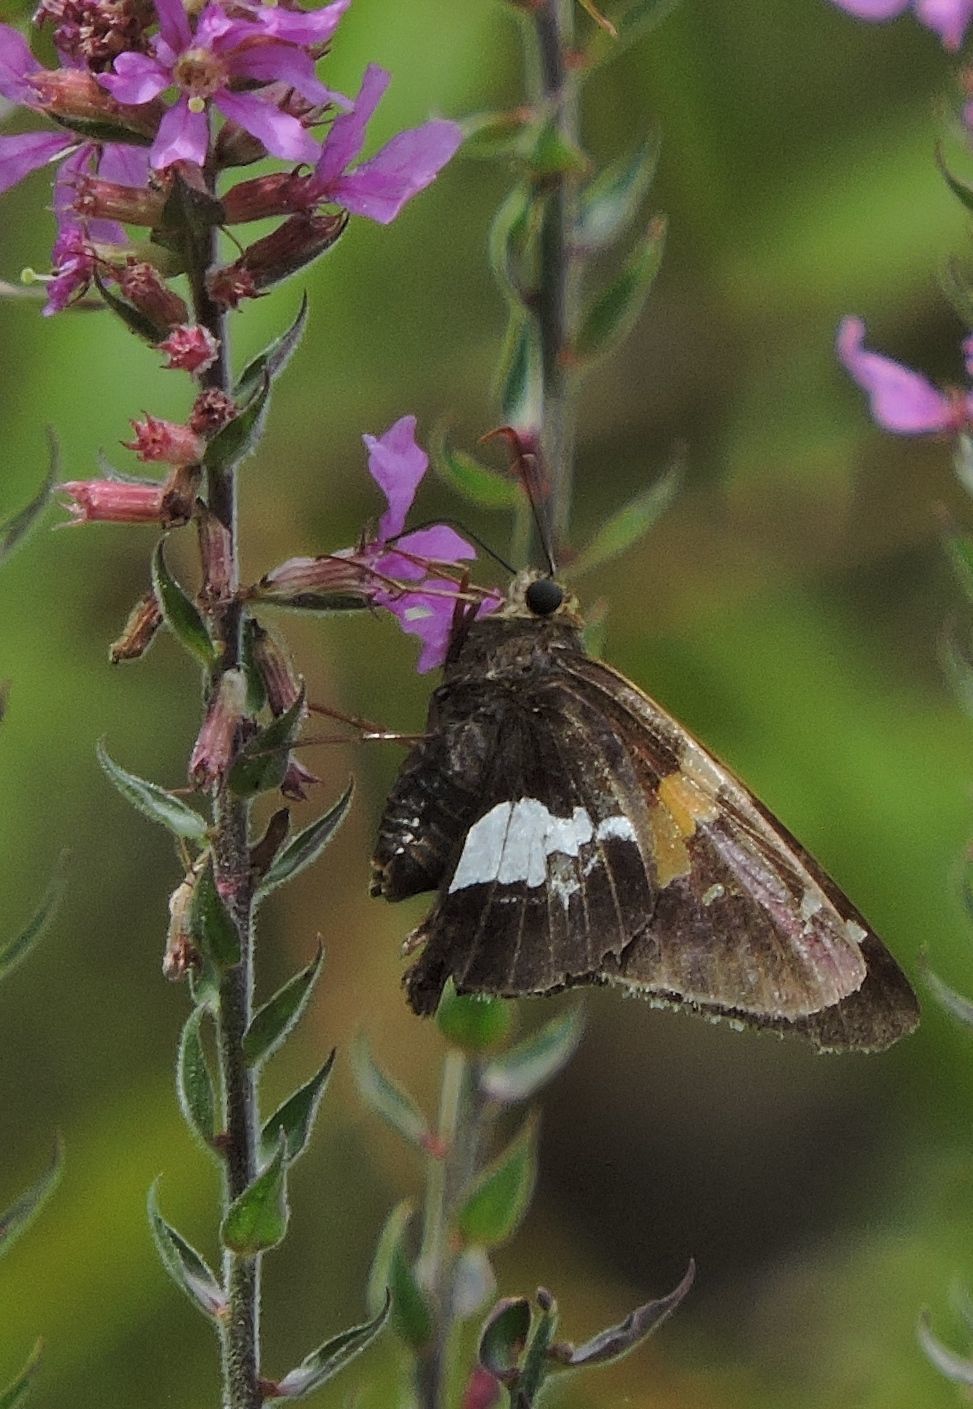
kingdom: Animalia
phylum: Arthropoda
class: Insecta
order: Lepidoptera
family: Hesperiidae
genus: Epargyreus
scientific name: Epargyreus clarus
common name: Silver-spotted skipper
